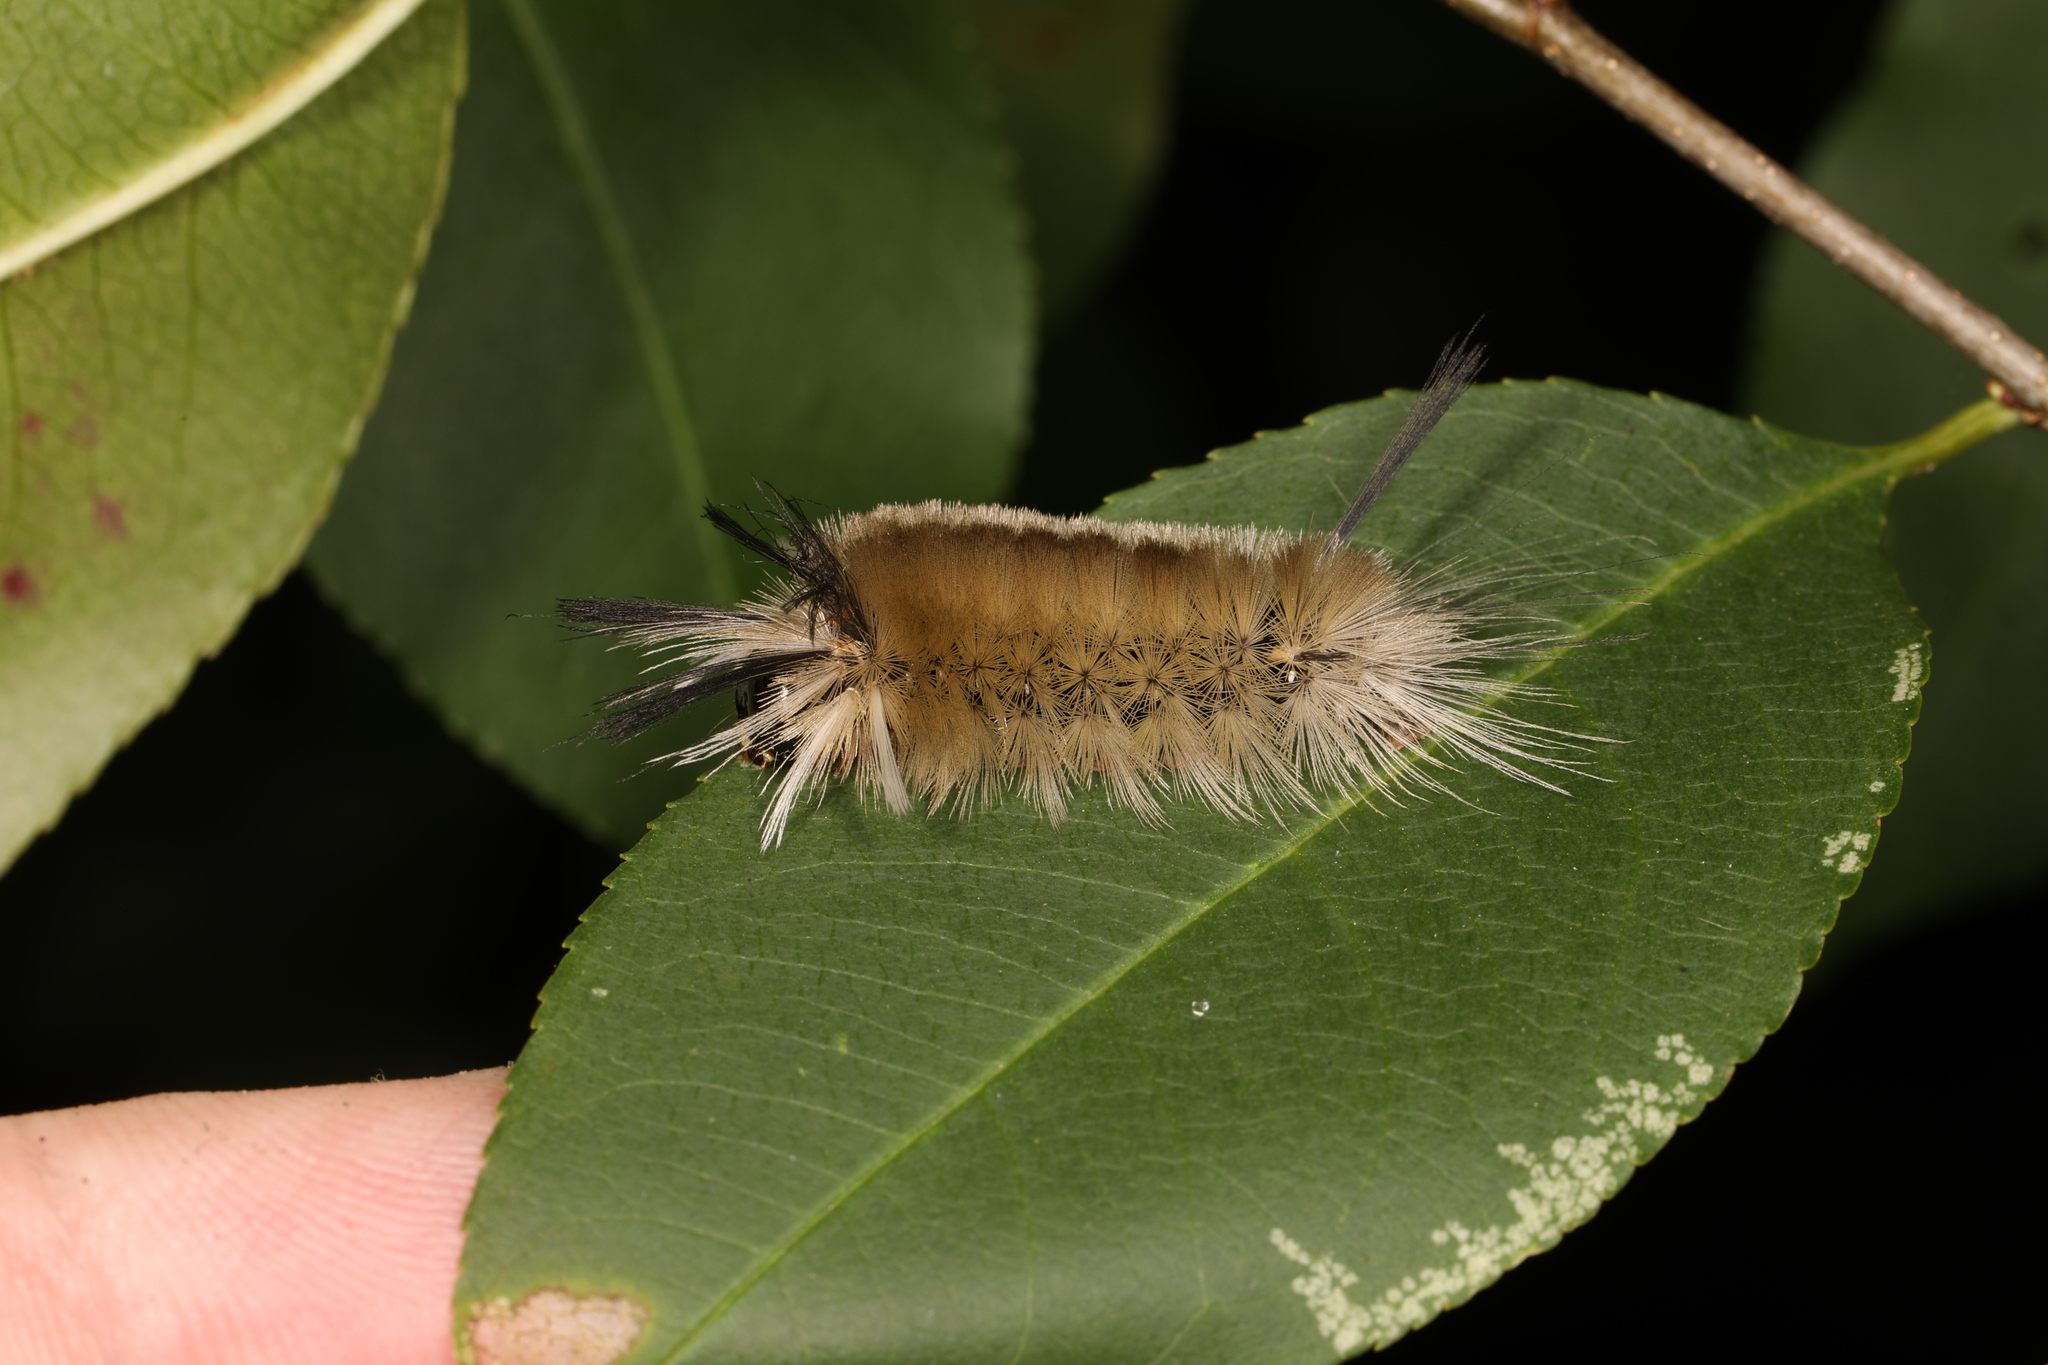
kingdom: Animalia
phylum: Arthropoda
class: Insecta
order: Lepidoptera
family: Erebidae
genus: Halysidota
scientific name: Halysidota tessellaris
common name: Banded tussock moth
